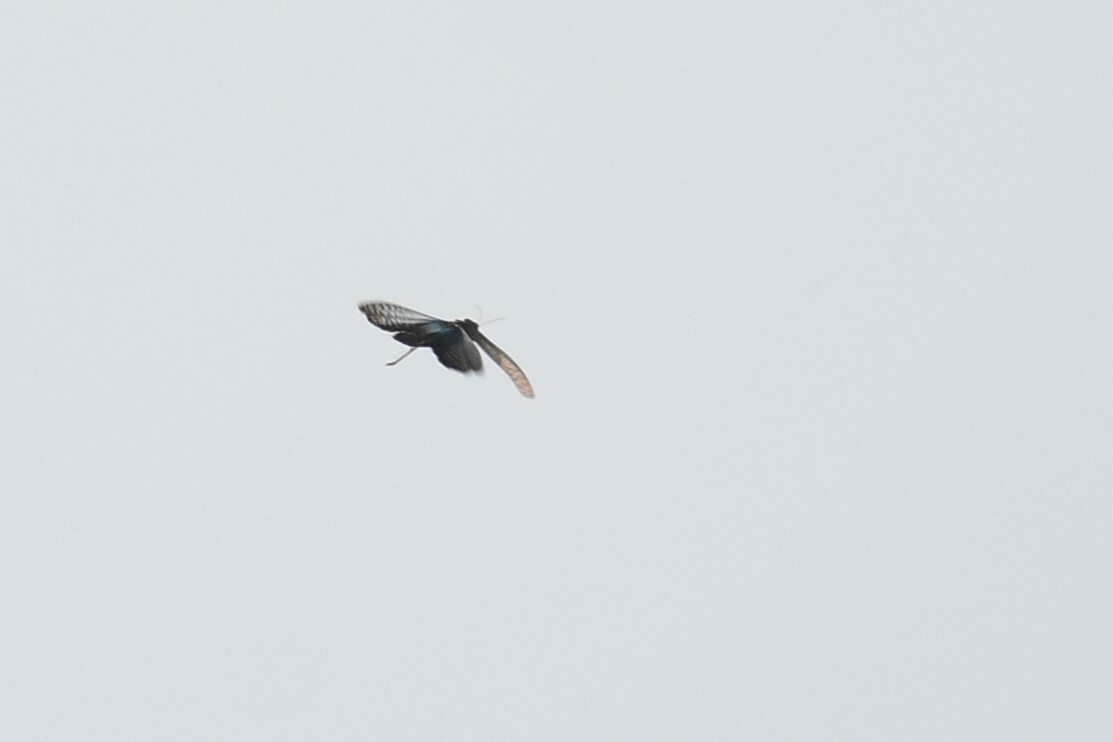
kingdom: Animalia
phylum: Arthropoda
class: Insecta
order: Orthoptera
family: Romaleidae
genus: Tropidacris
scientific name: Tropidacris collaris
